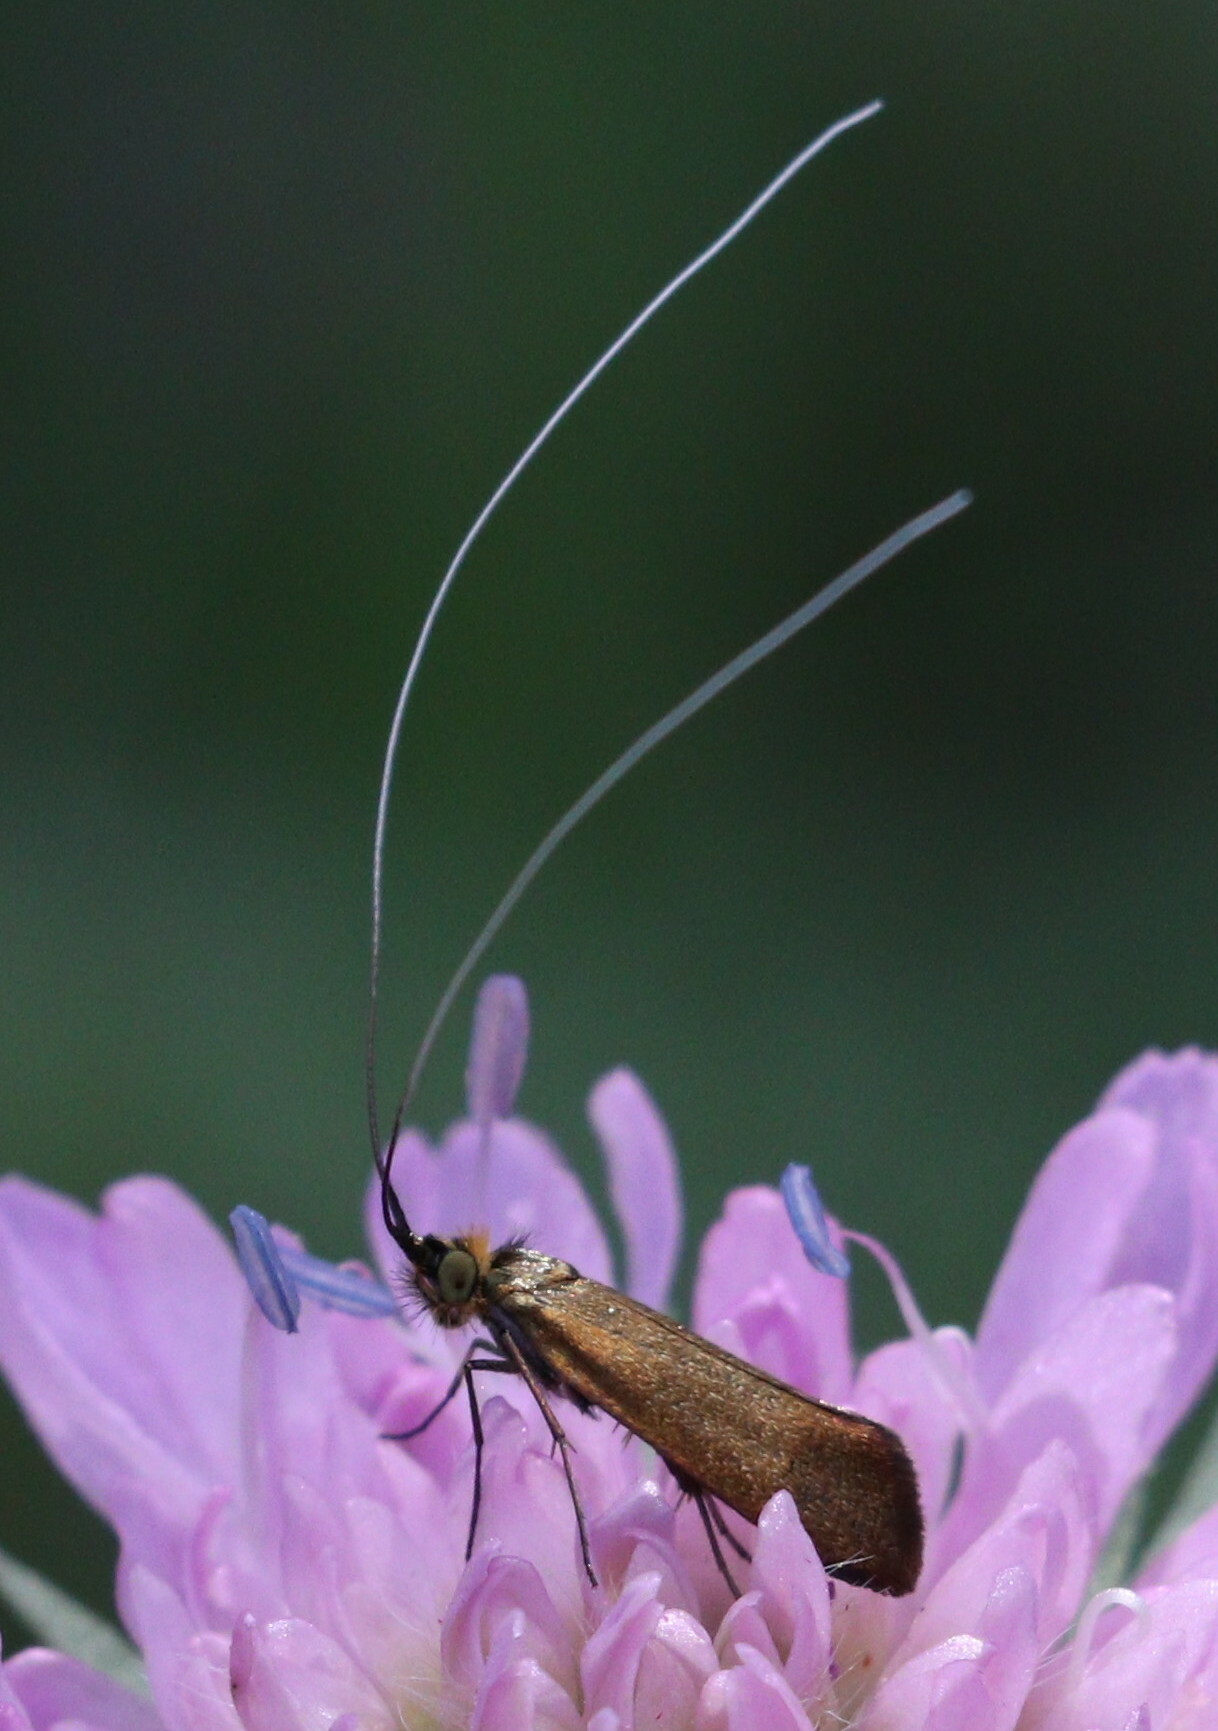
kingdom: Animalia
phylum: Arthropoda
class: Insecta
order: Lepidoptera
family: Adelidae
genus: Nemophora
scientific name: Nemophora metallica
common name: Brassy long-horn
